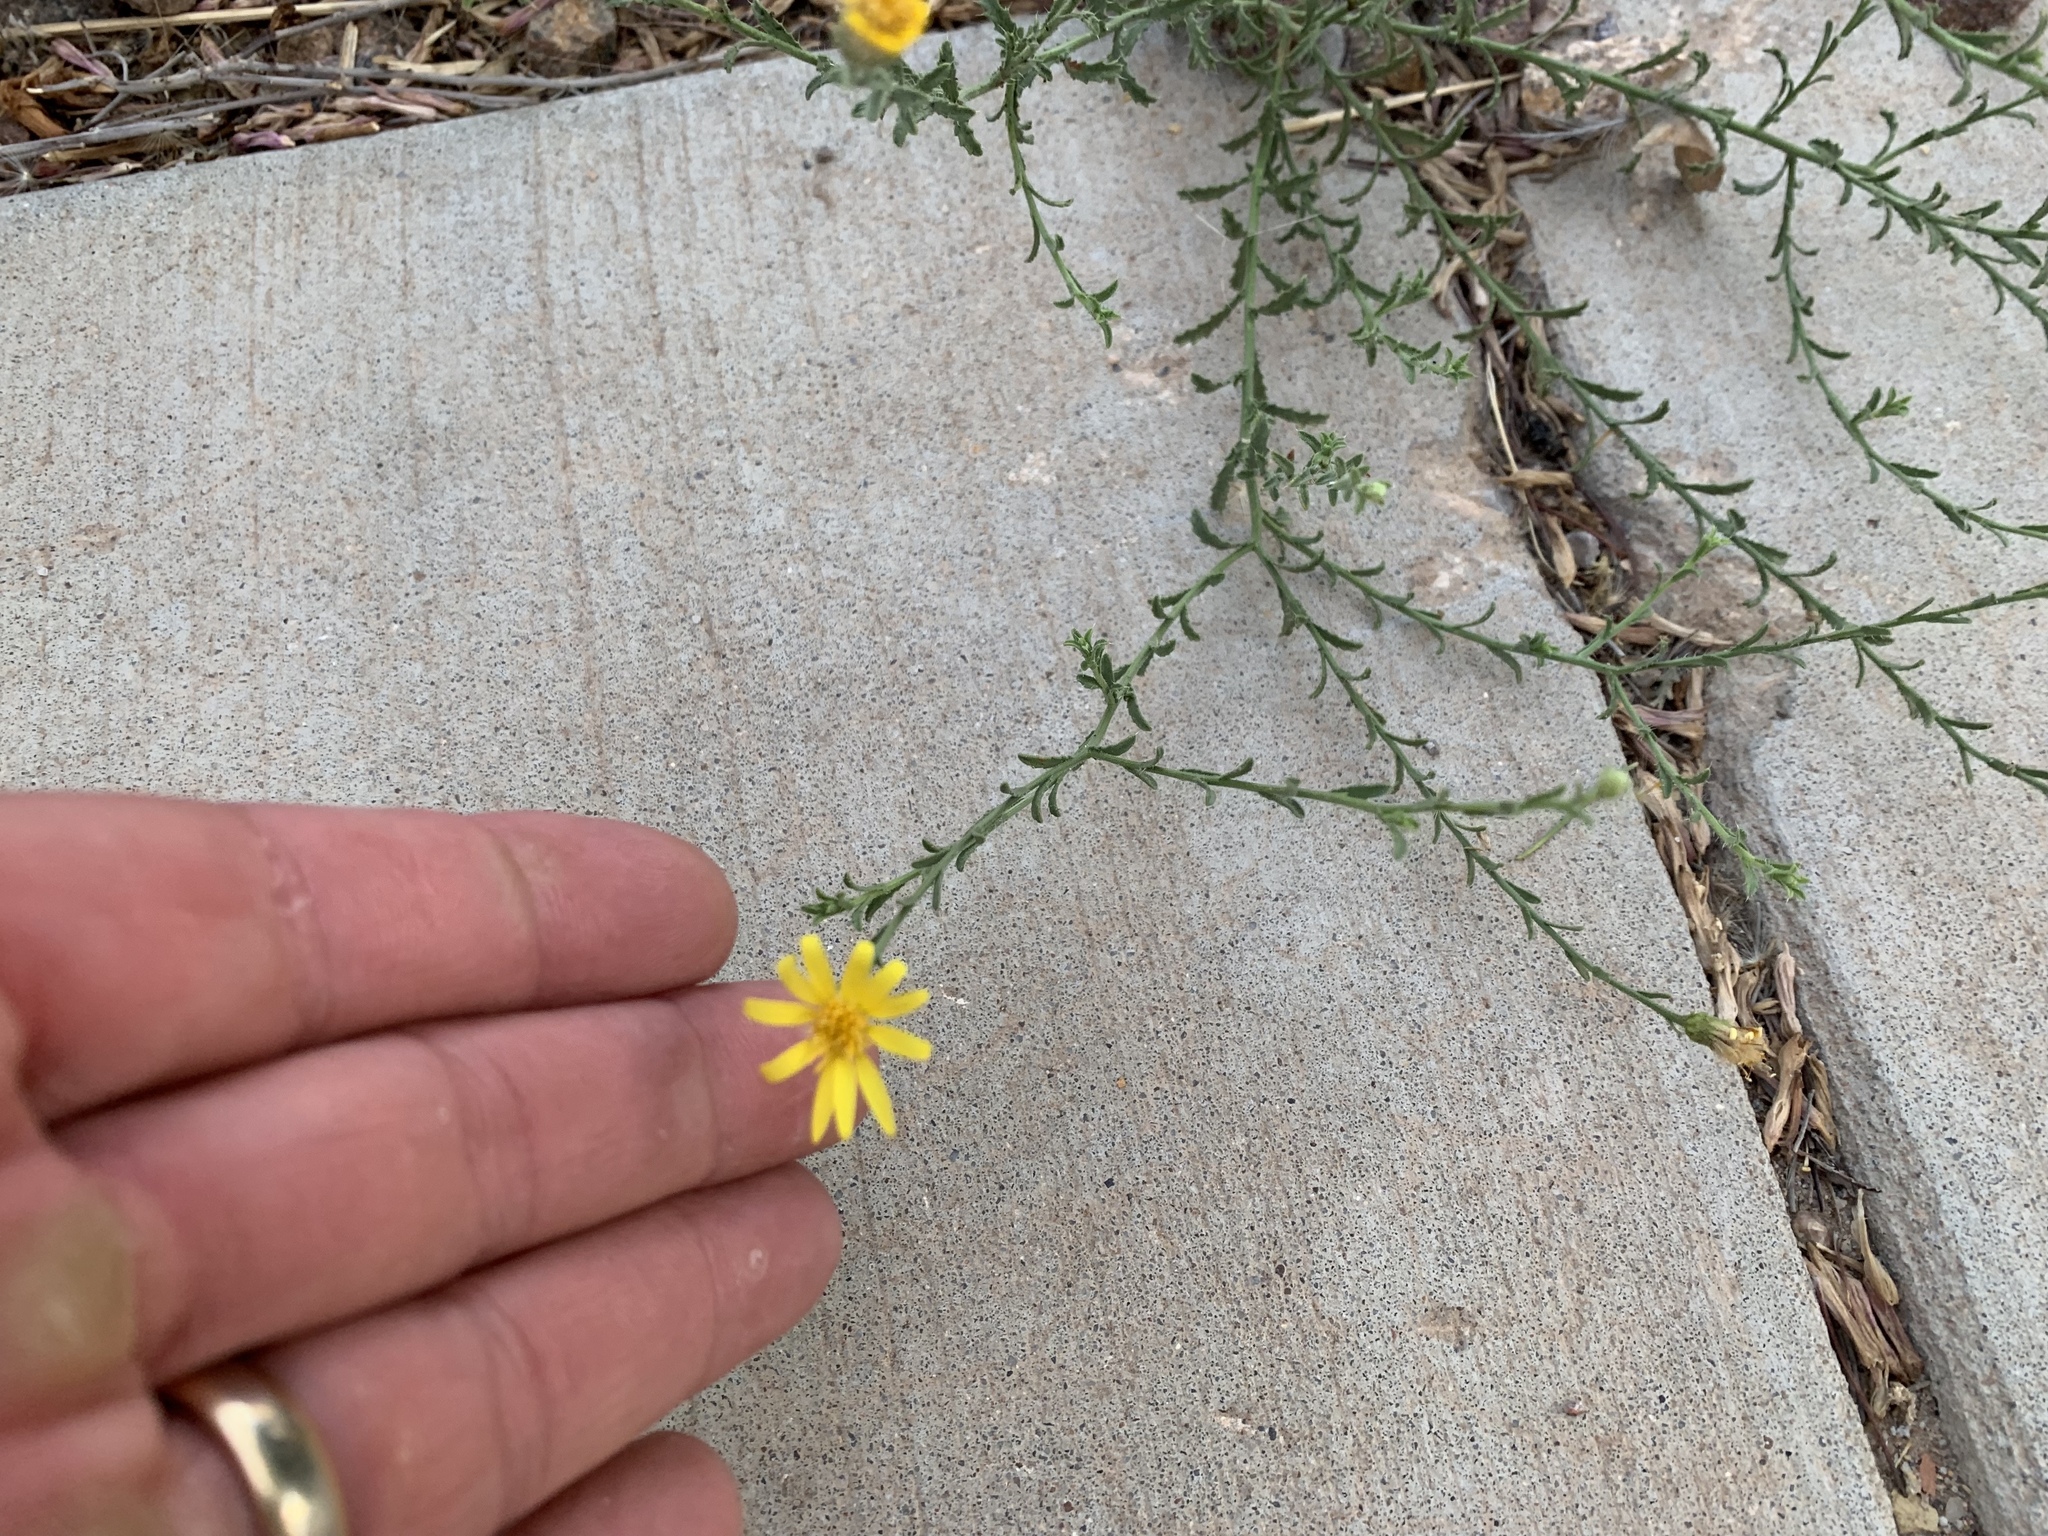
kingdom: Plantae
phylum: Tracheophyta
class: Magnoliopsida
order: Asterales
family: Asteraceae
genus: Xanthisma
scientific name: Xanthisma spinulosum
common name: Spiny goldenweed
